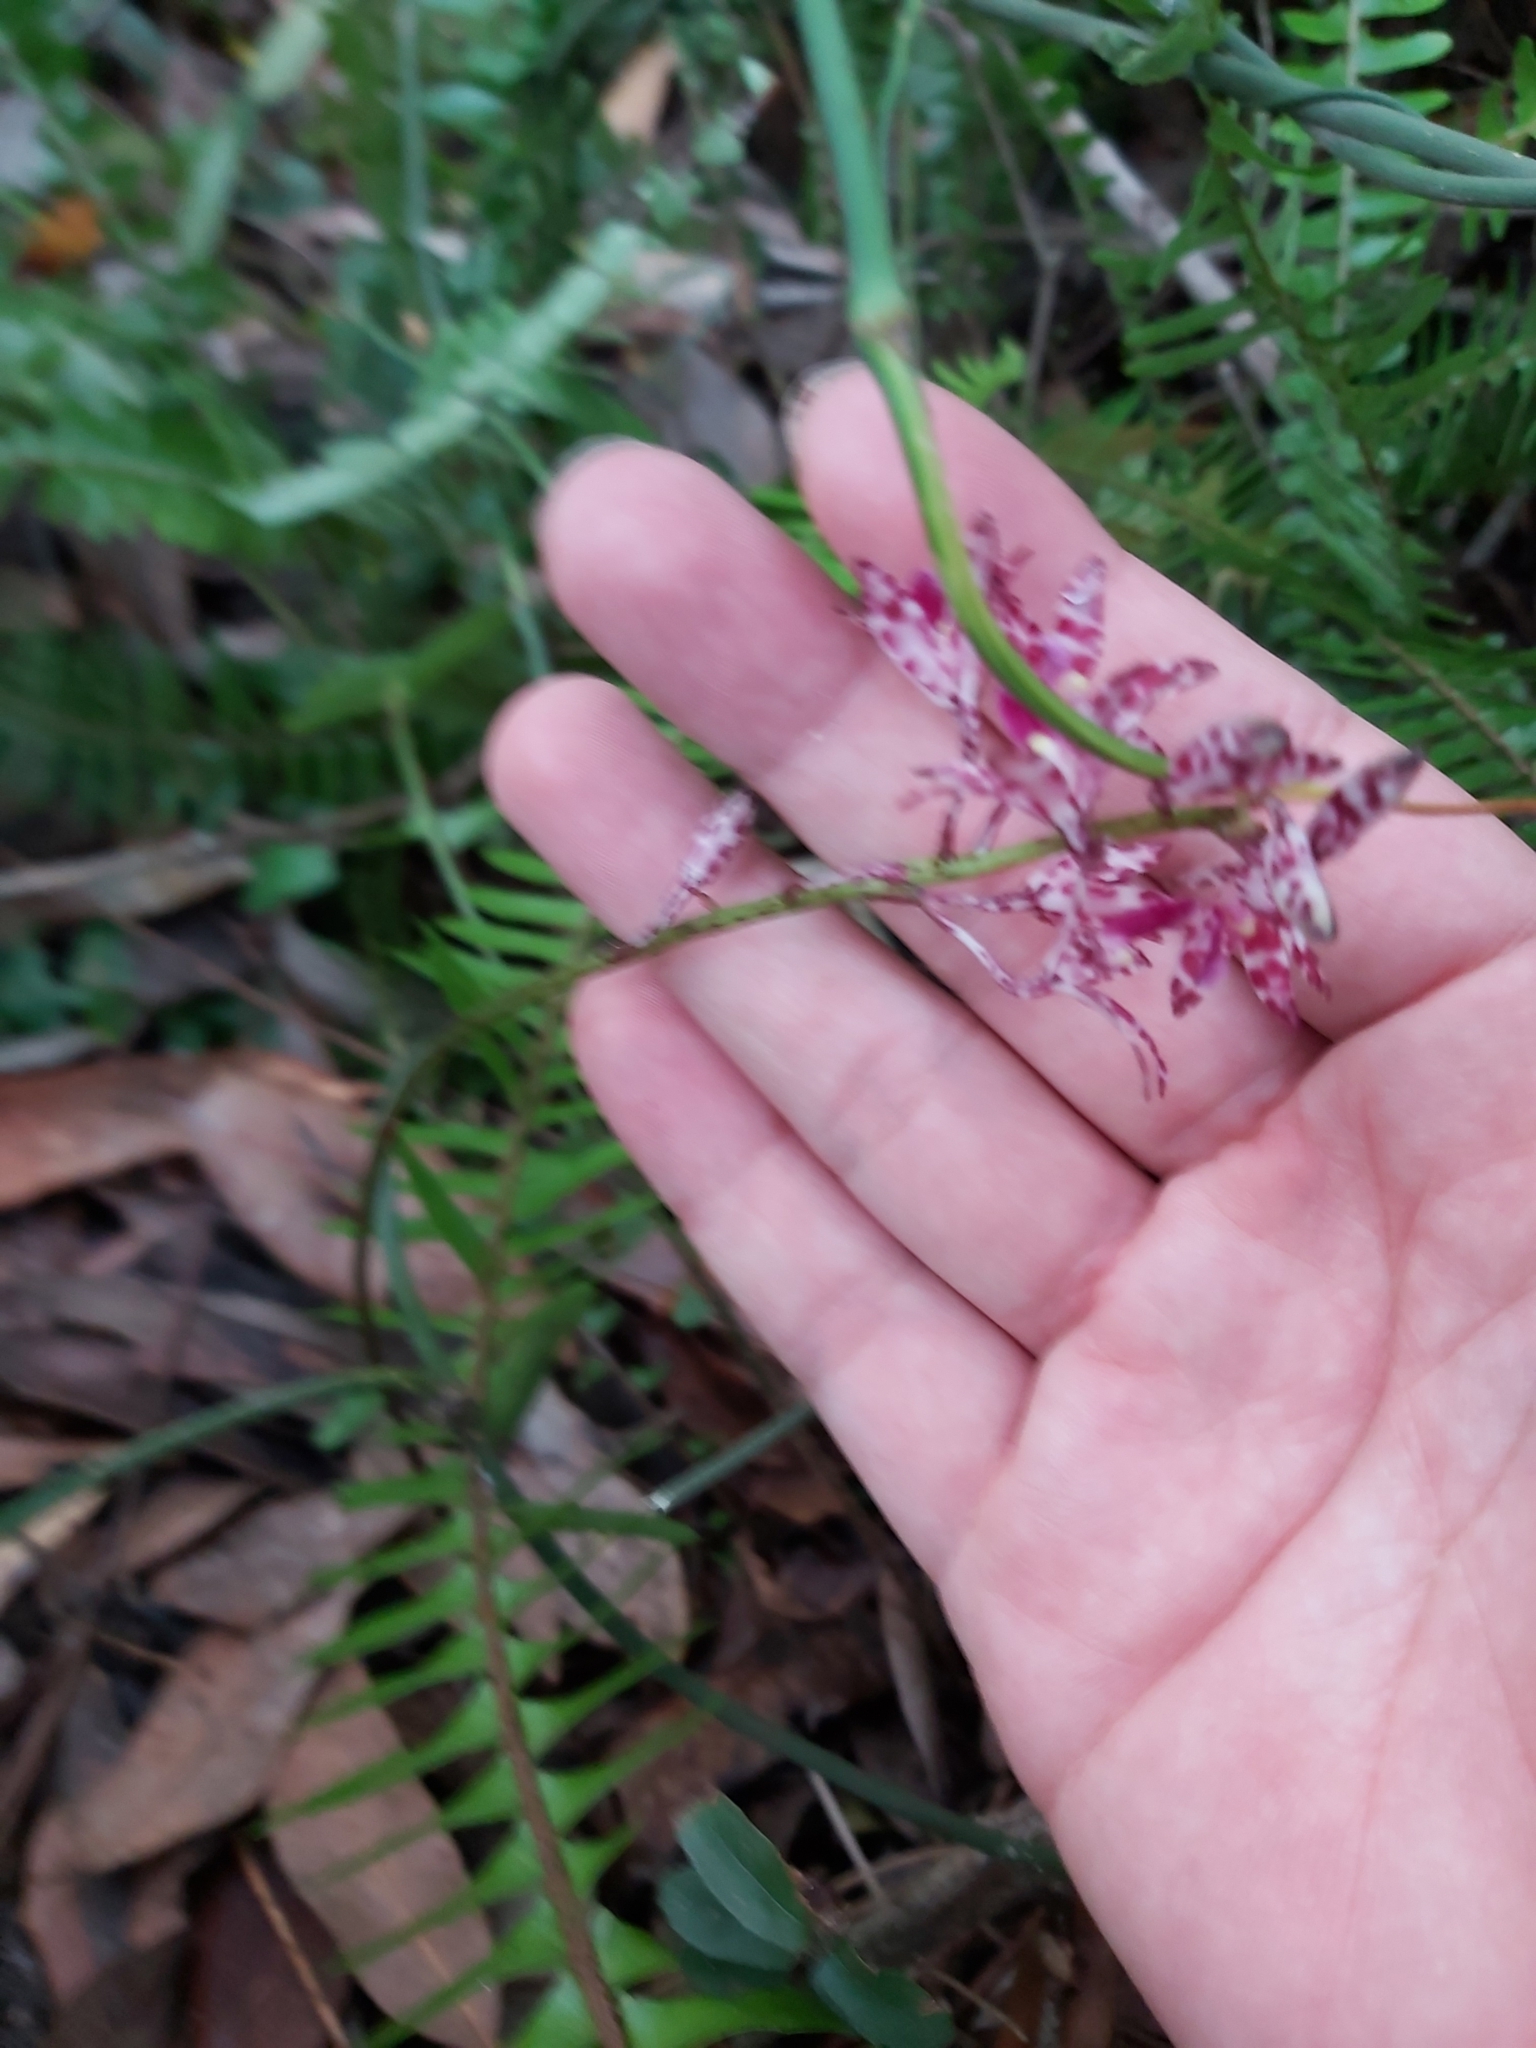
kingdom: Plantae
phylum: Tracheophyta
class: Liliopsida
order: Asparagales
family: Orchidaceae
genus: Dipodium
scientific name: Dipodium variegatum
